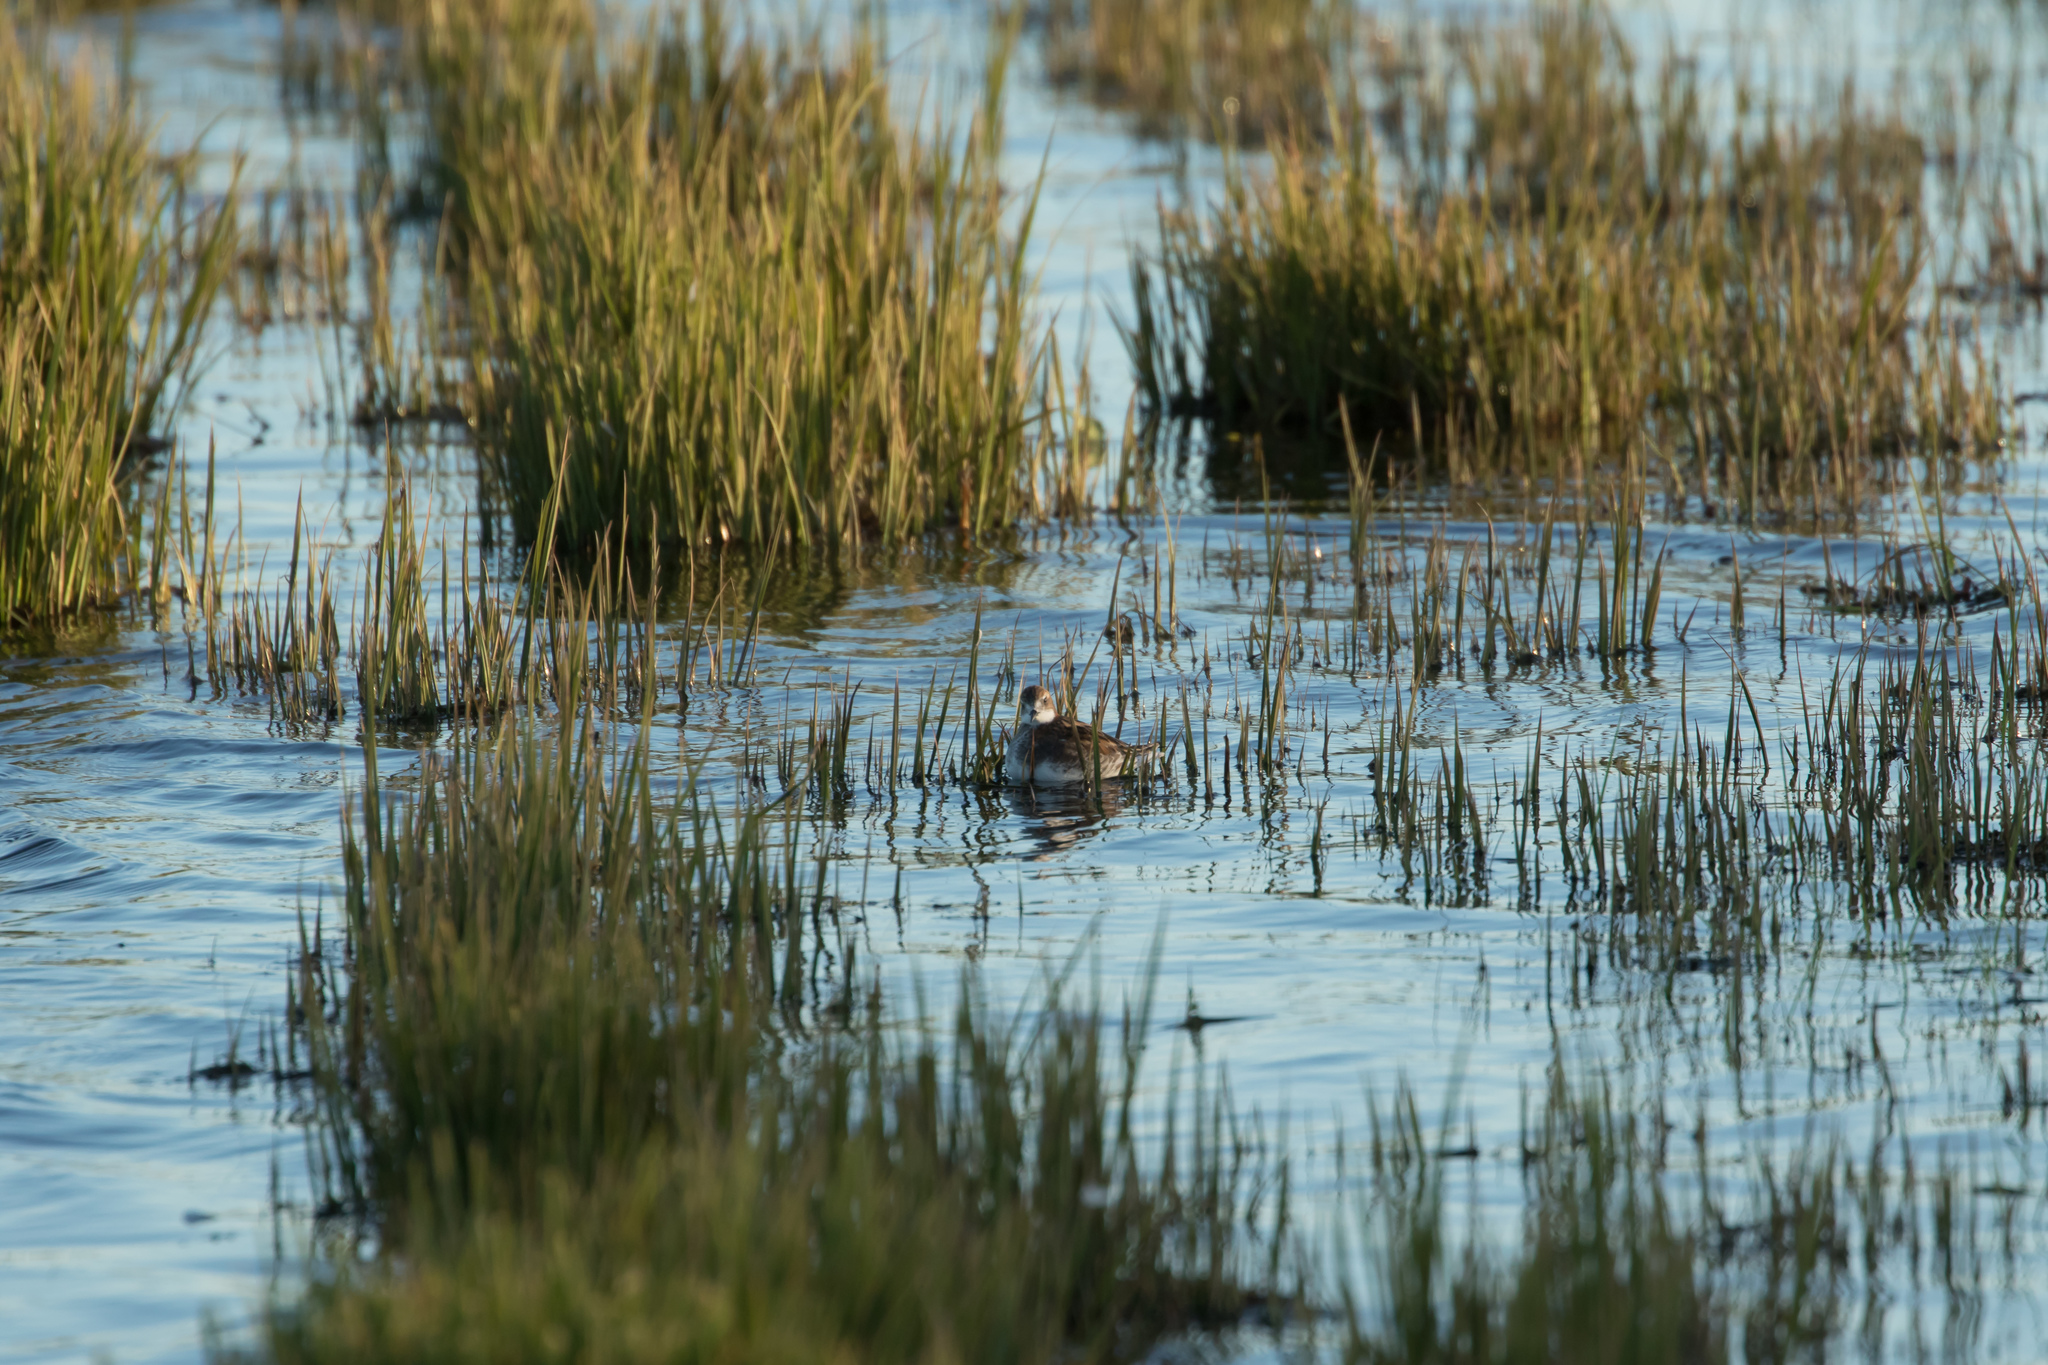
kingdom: Animalia
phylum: Chordata
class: Aves
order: Charadriiformes
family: Scolopacidae
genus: Phalaropus
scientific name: Phalaropus lobatus
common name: Red-necked phalarope
